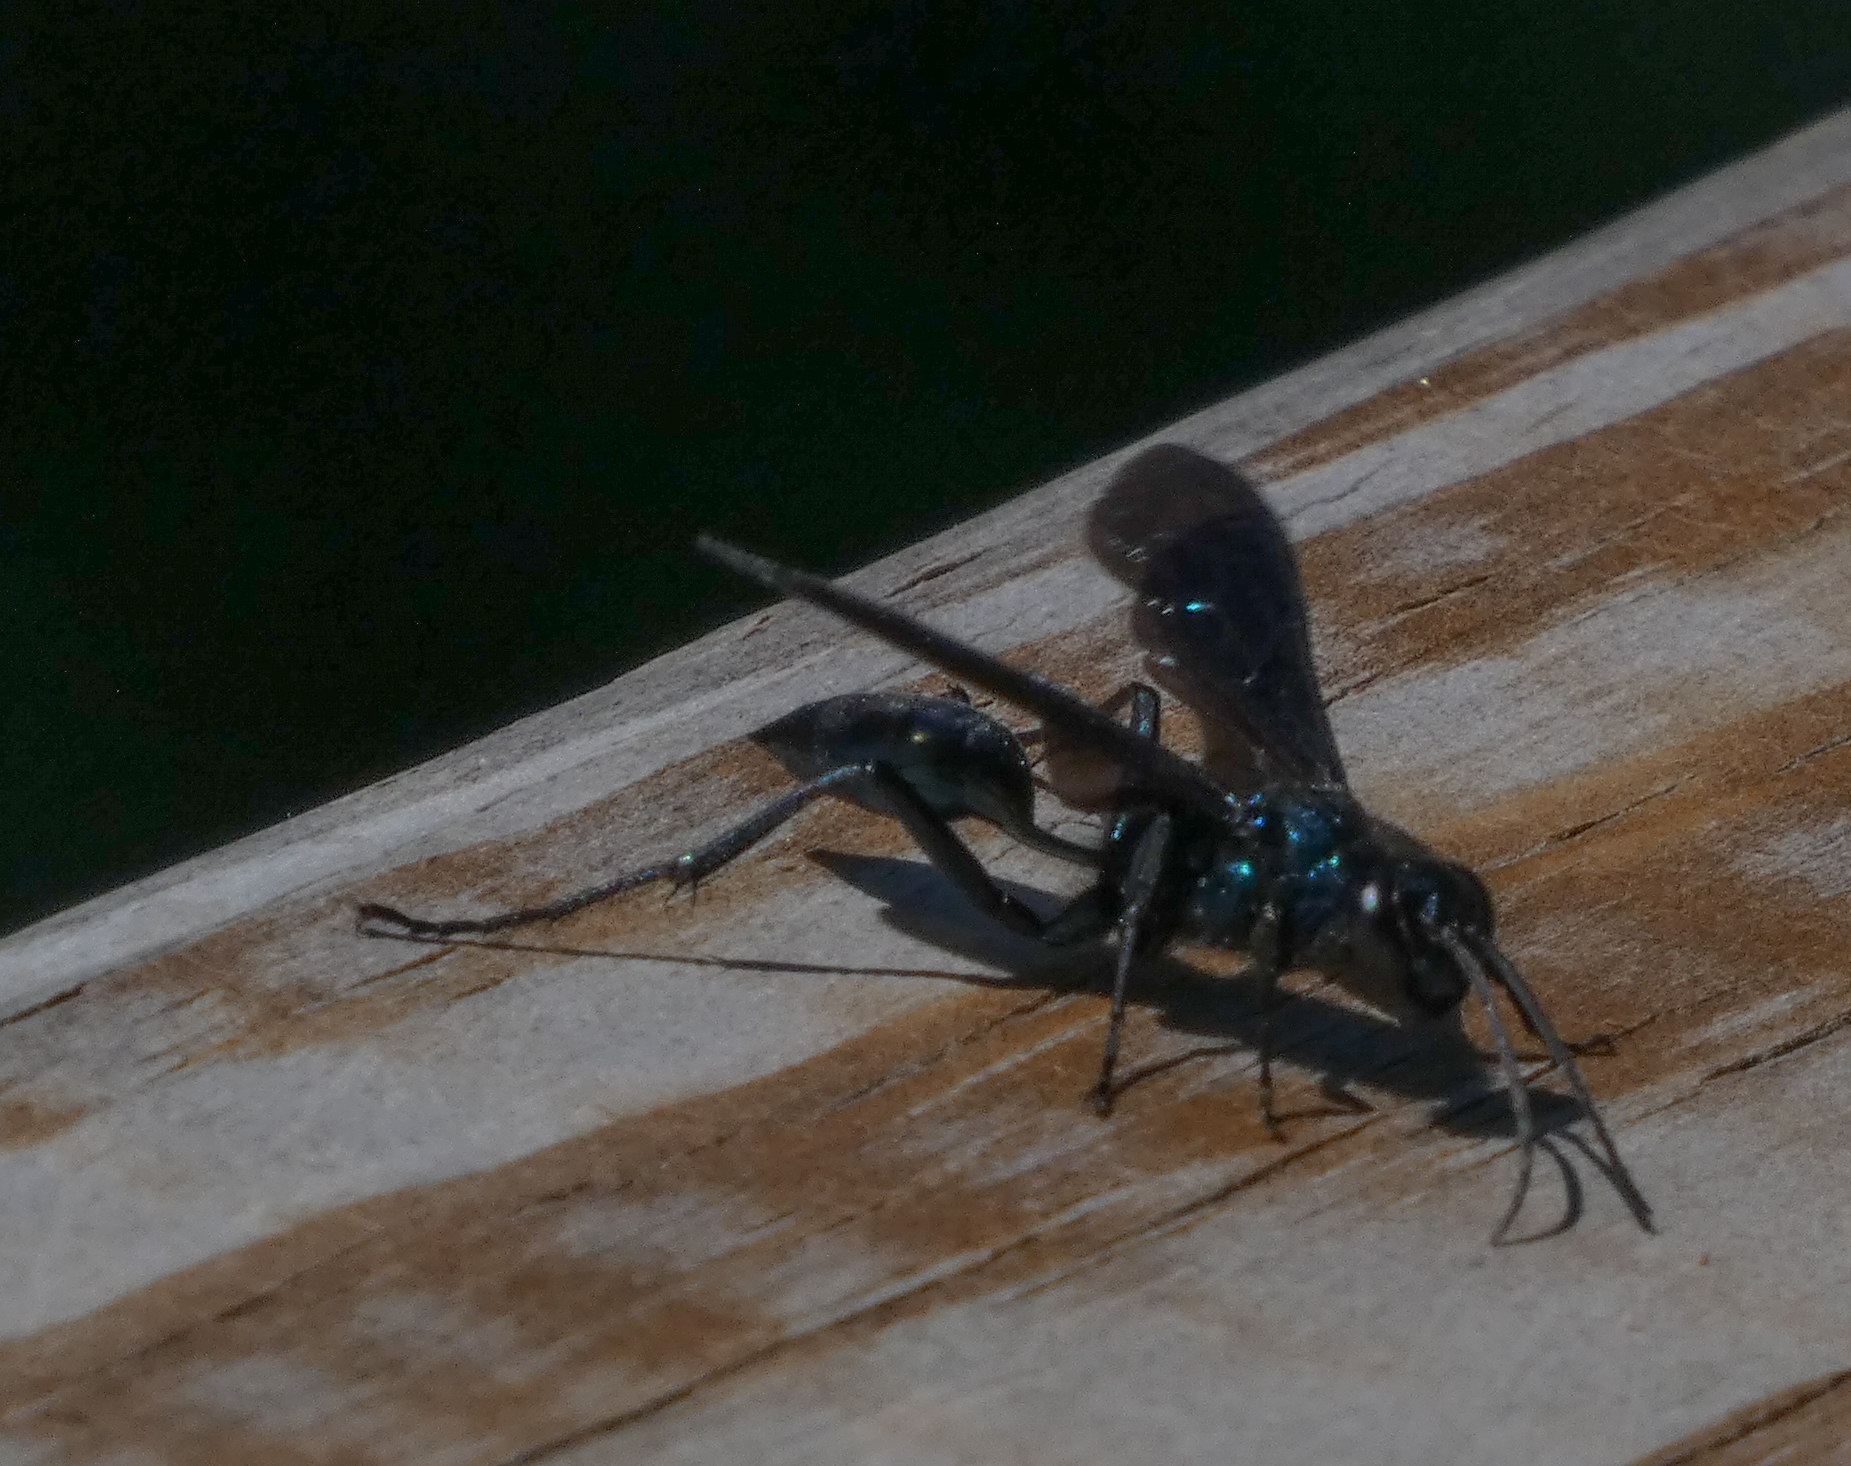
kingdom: Animalia
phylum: Arthropoda
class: Insecta
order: Hymenoptera
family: Sphecidae
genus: Chalybion
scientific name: Chalybion californicum
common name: Mud dauber
